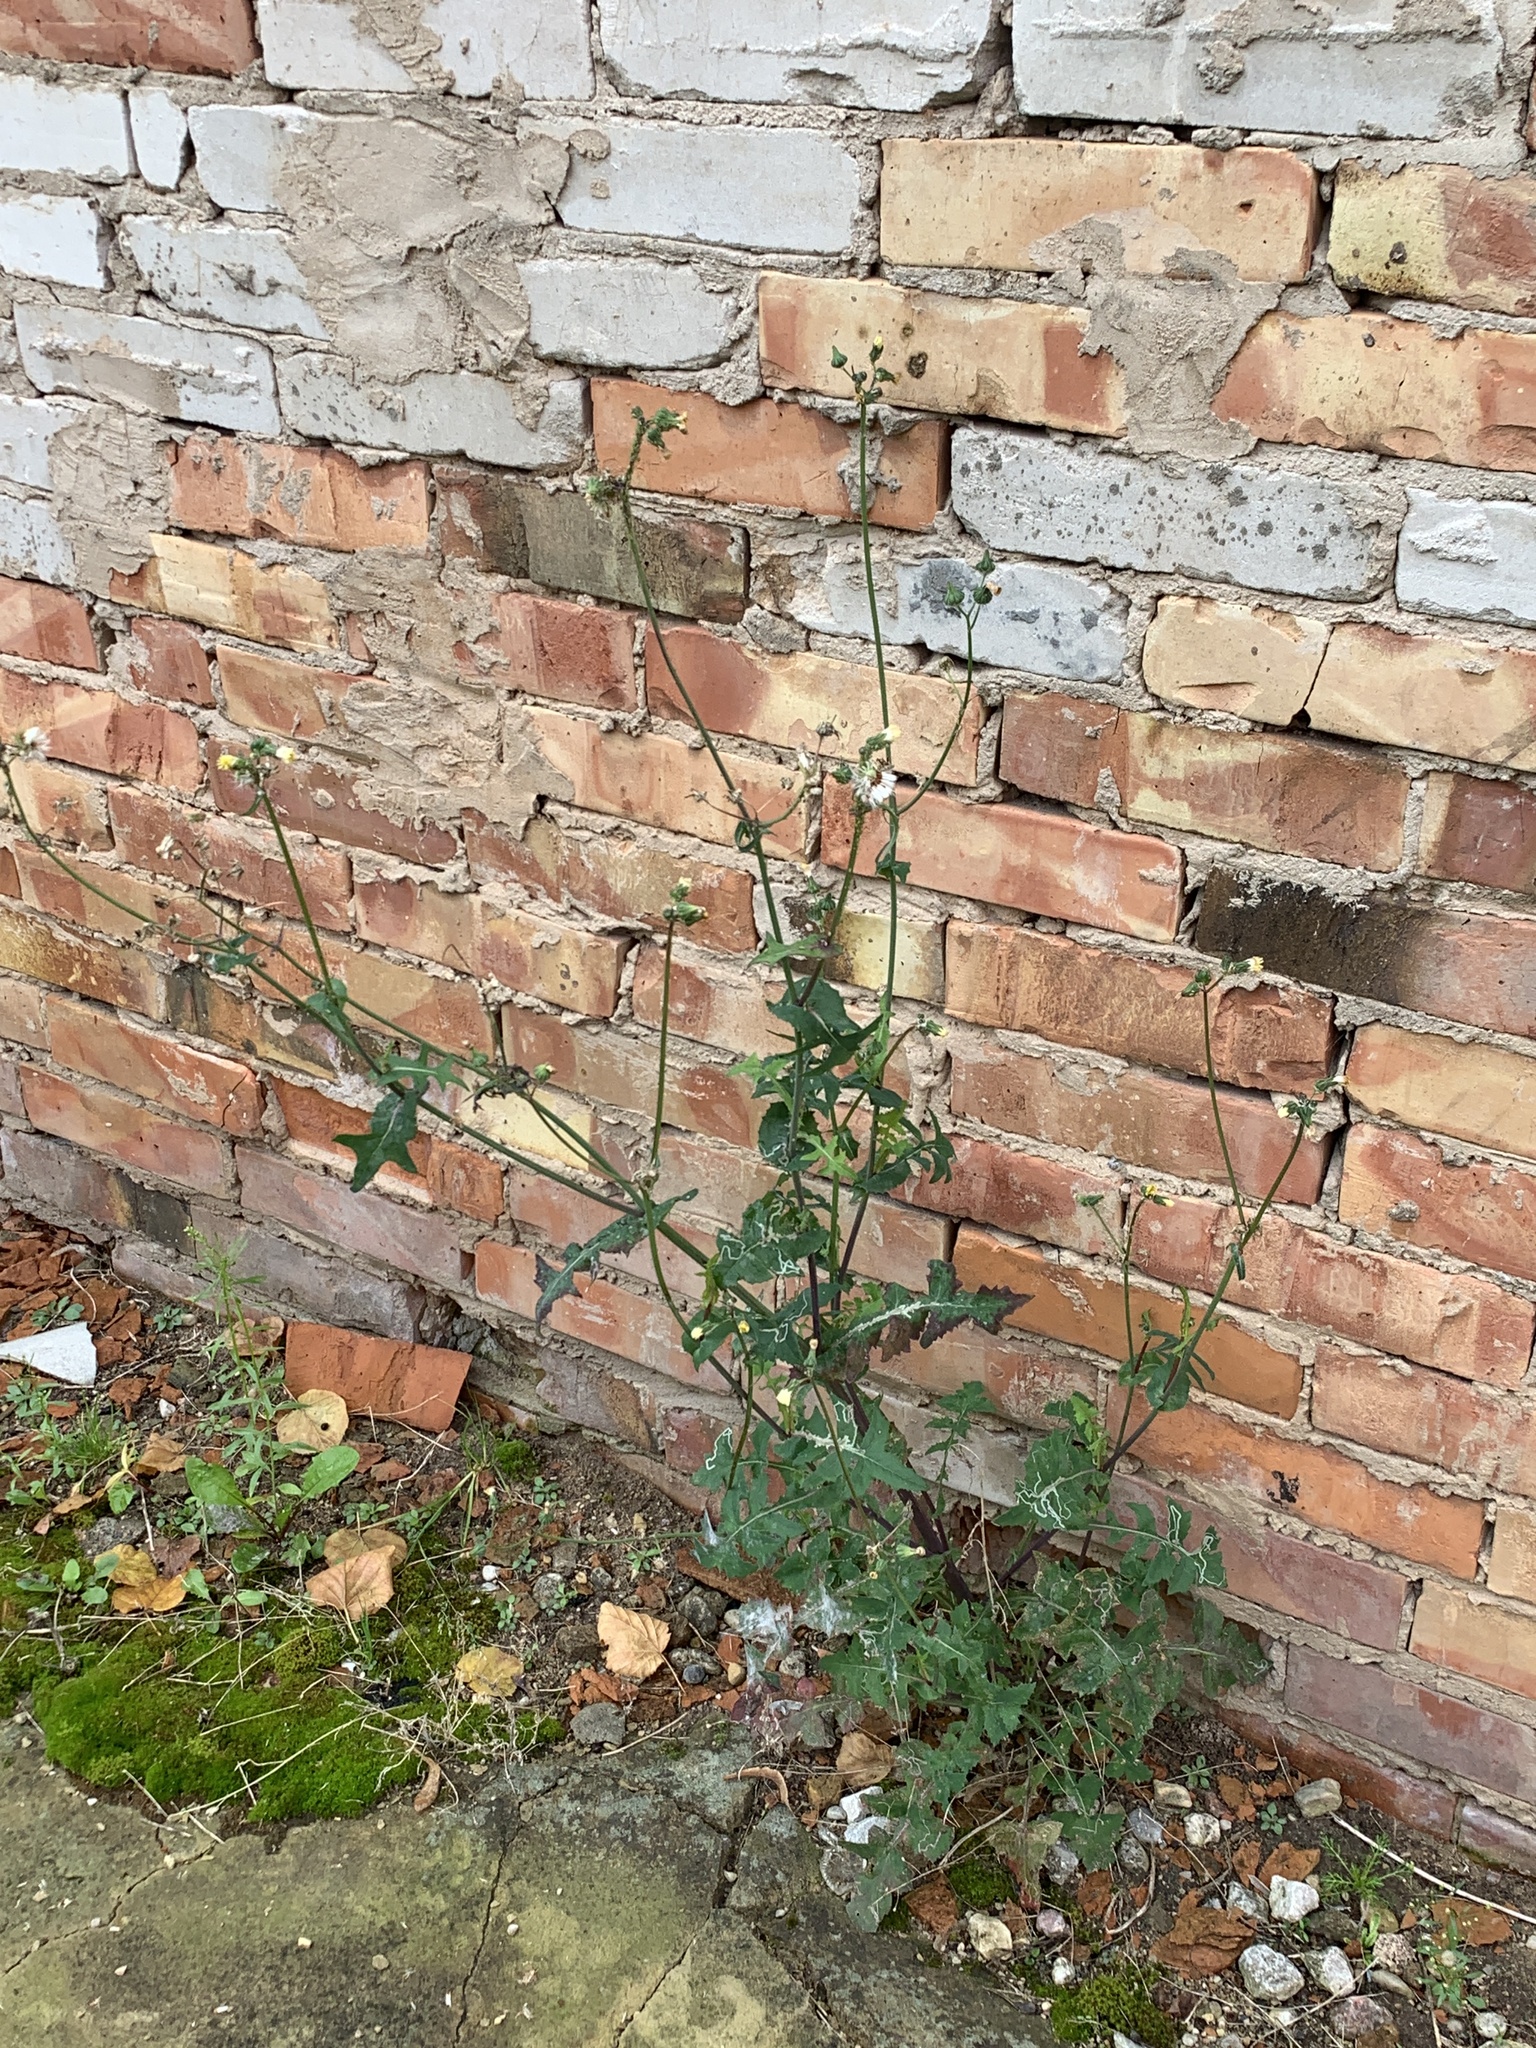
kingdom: Plantae
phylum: Tracheophyta
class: Magnoliopsida
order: Asterales
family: Asteraceae
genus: Sonchus
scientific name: Sonchus oleraceus
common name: Common sowthistle
